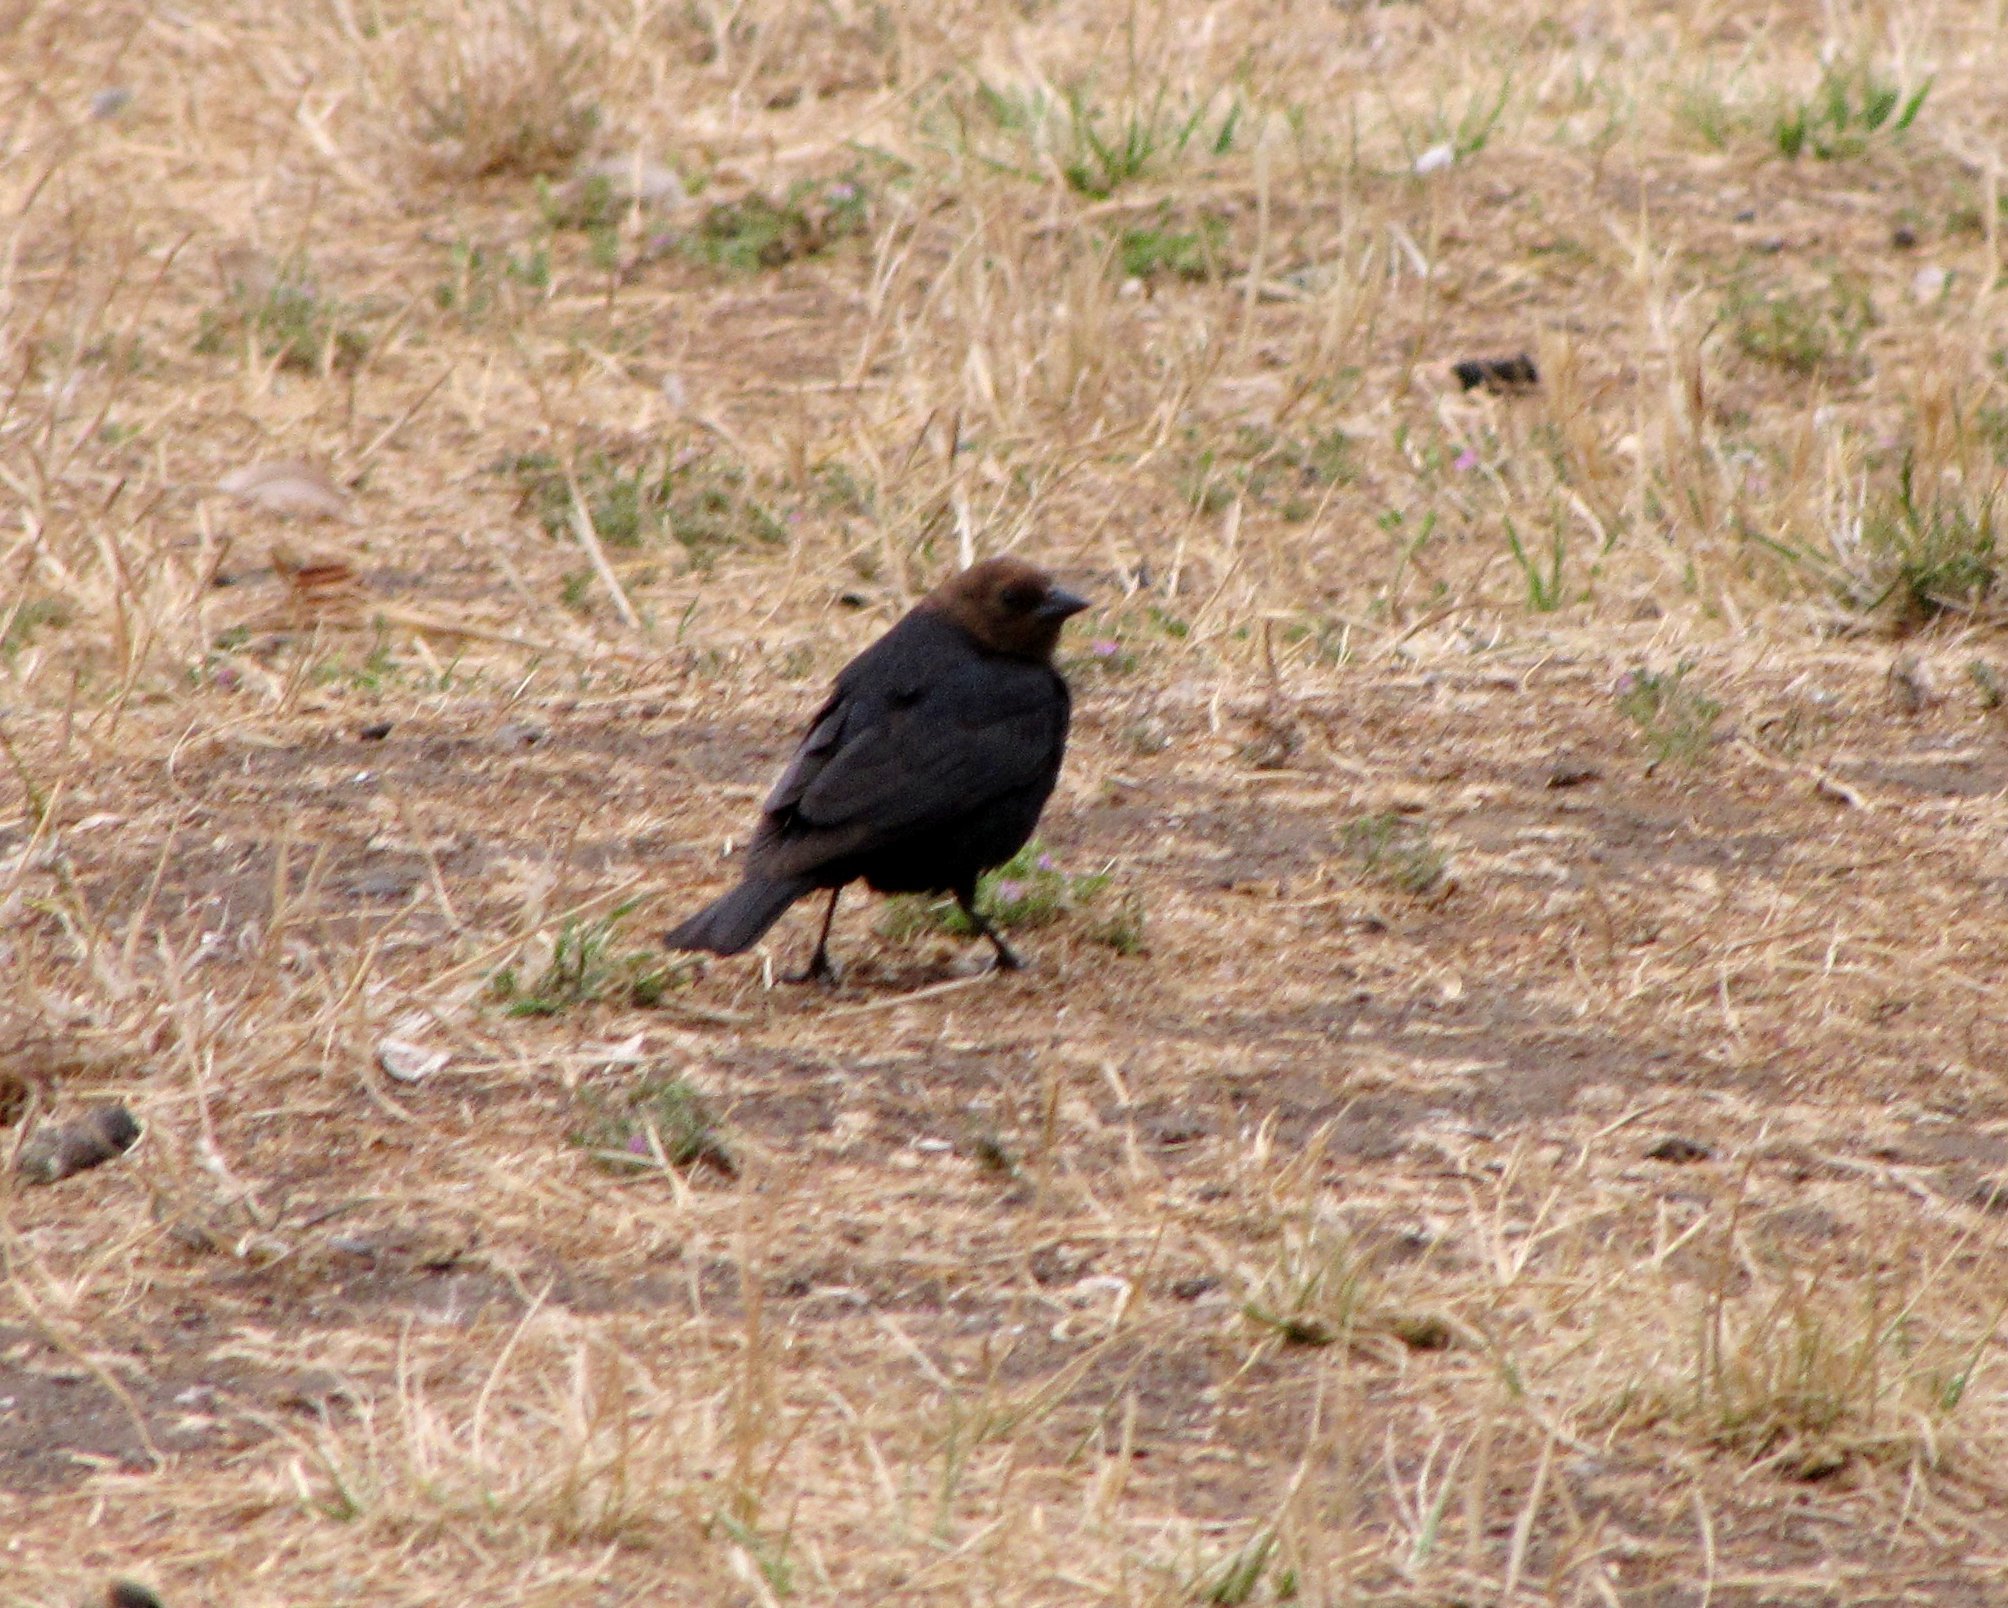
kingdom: Animalia
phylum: Chordata
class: Aves
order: Passeriformes
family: Icteridae
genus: Molothrus
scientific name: Molothrus ater
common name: Brown-headed cowbird
